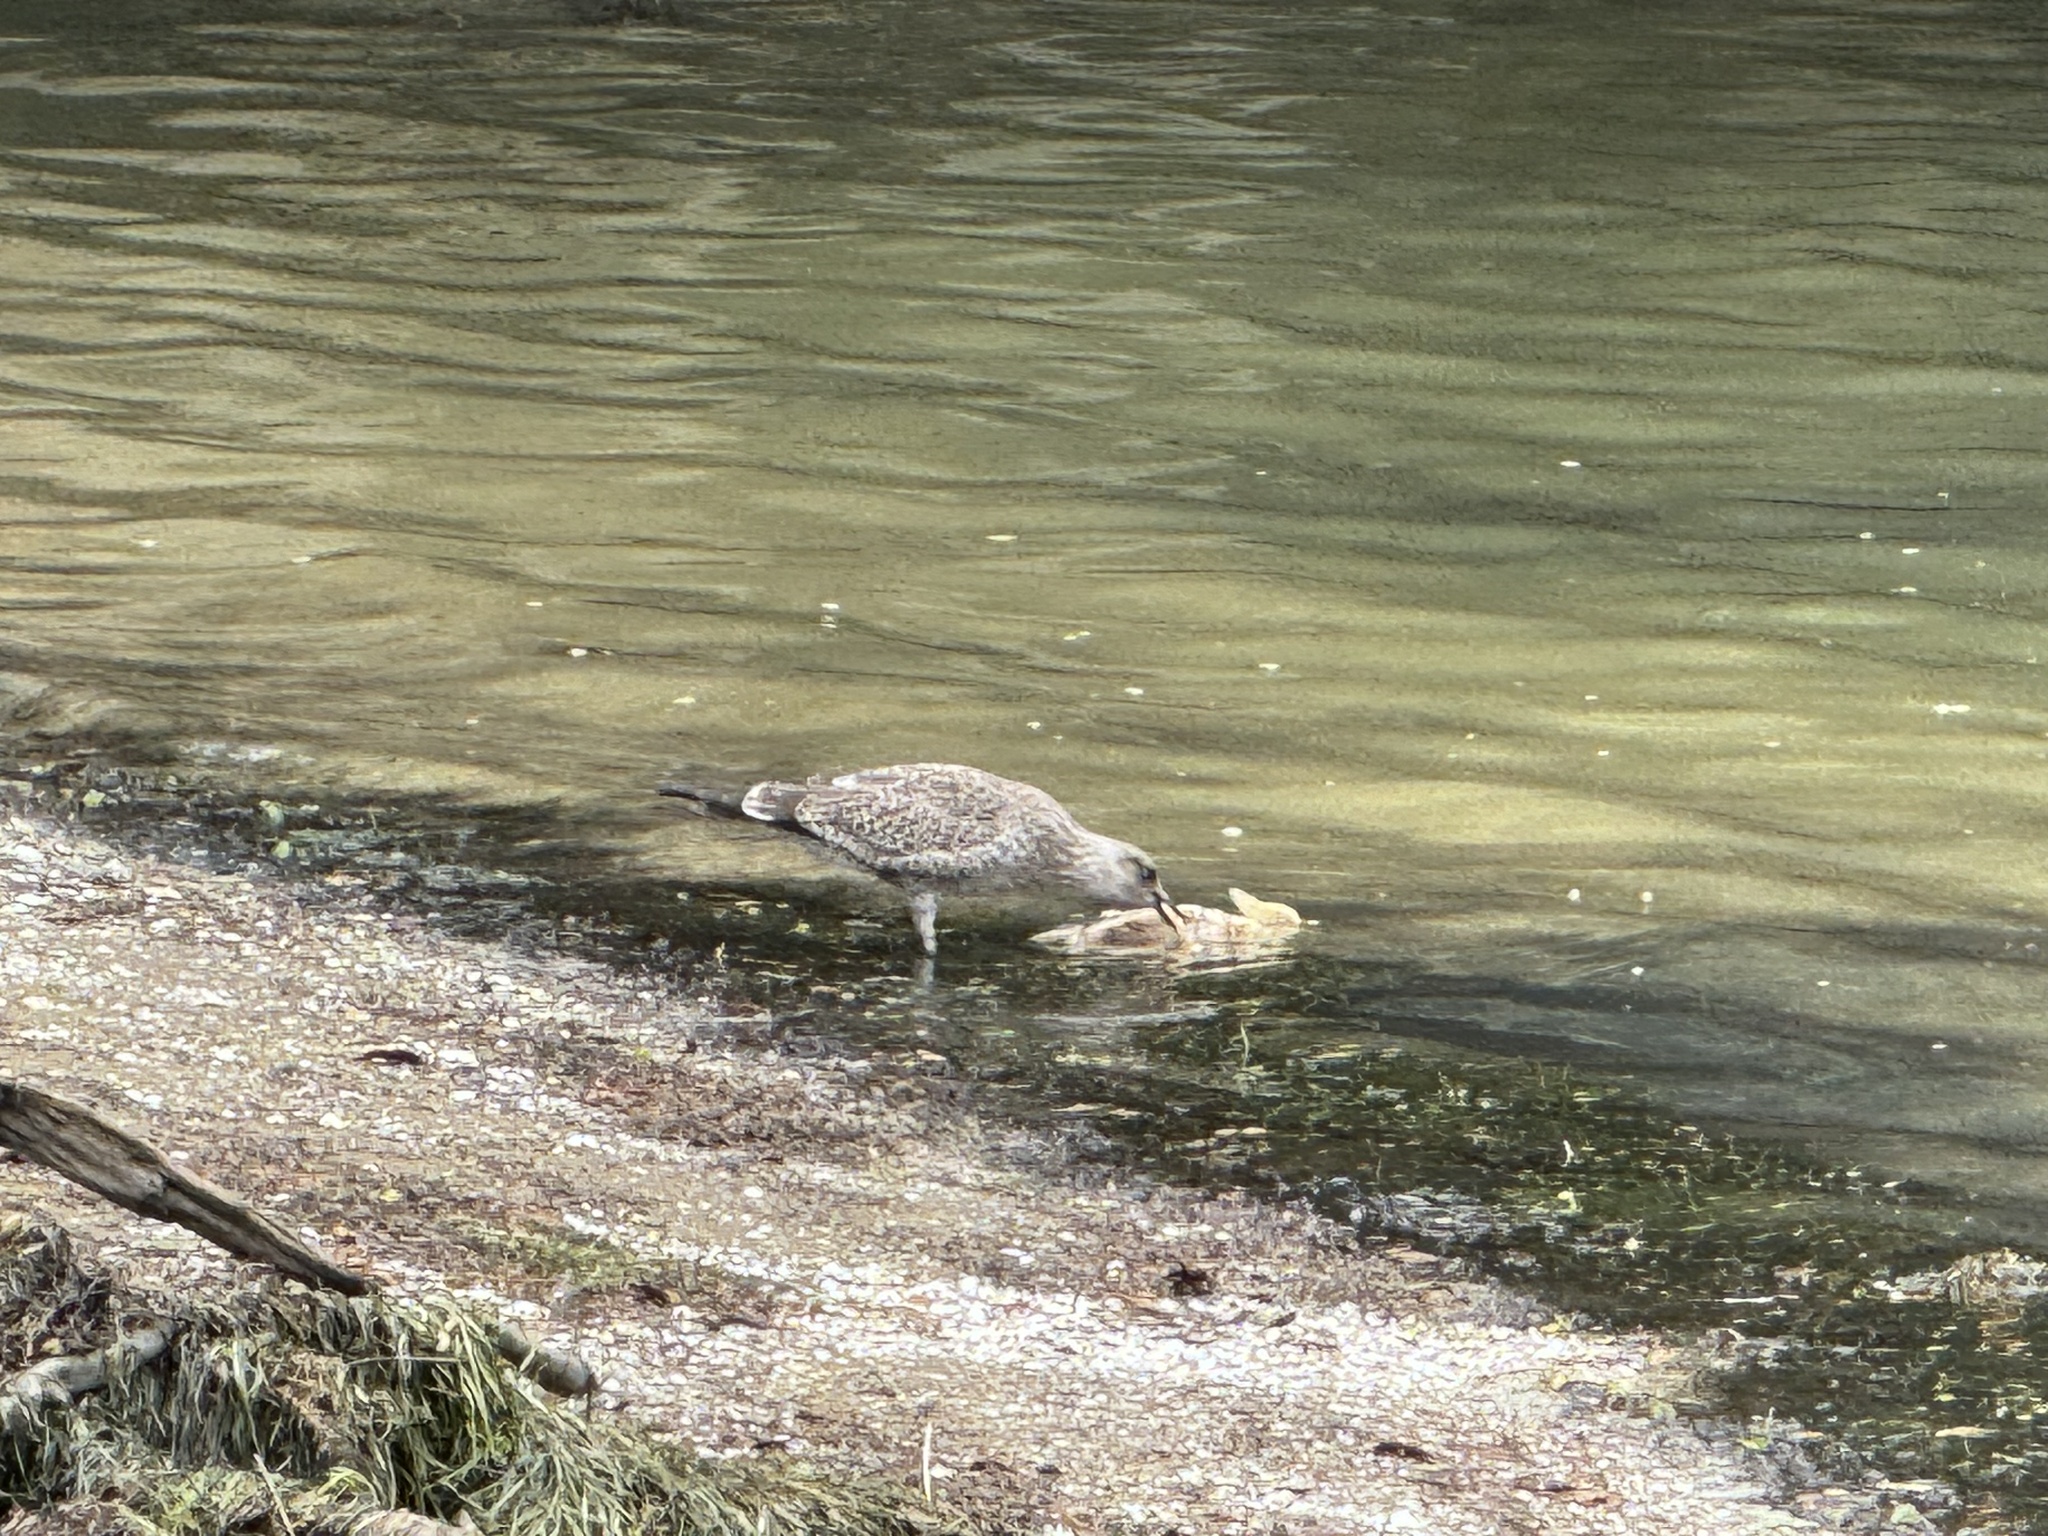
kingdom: Animalia
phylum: Chordata
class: Aves
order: Charadriiformes
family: Laridae
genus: Larus
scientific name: Larus dominicanus
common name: Kelp gull
